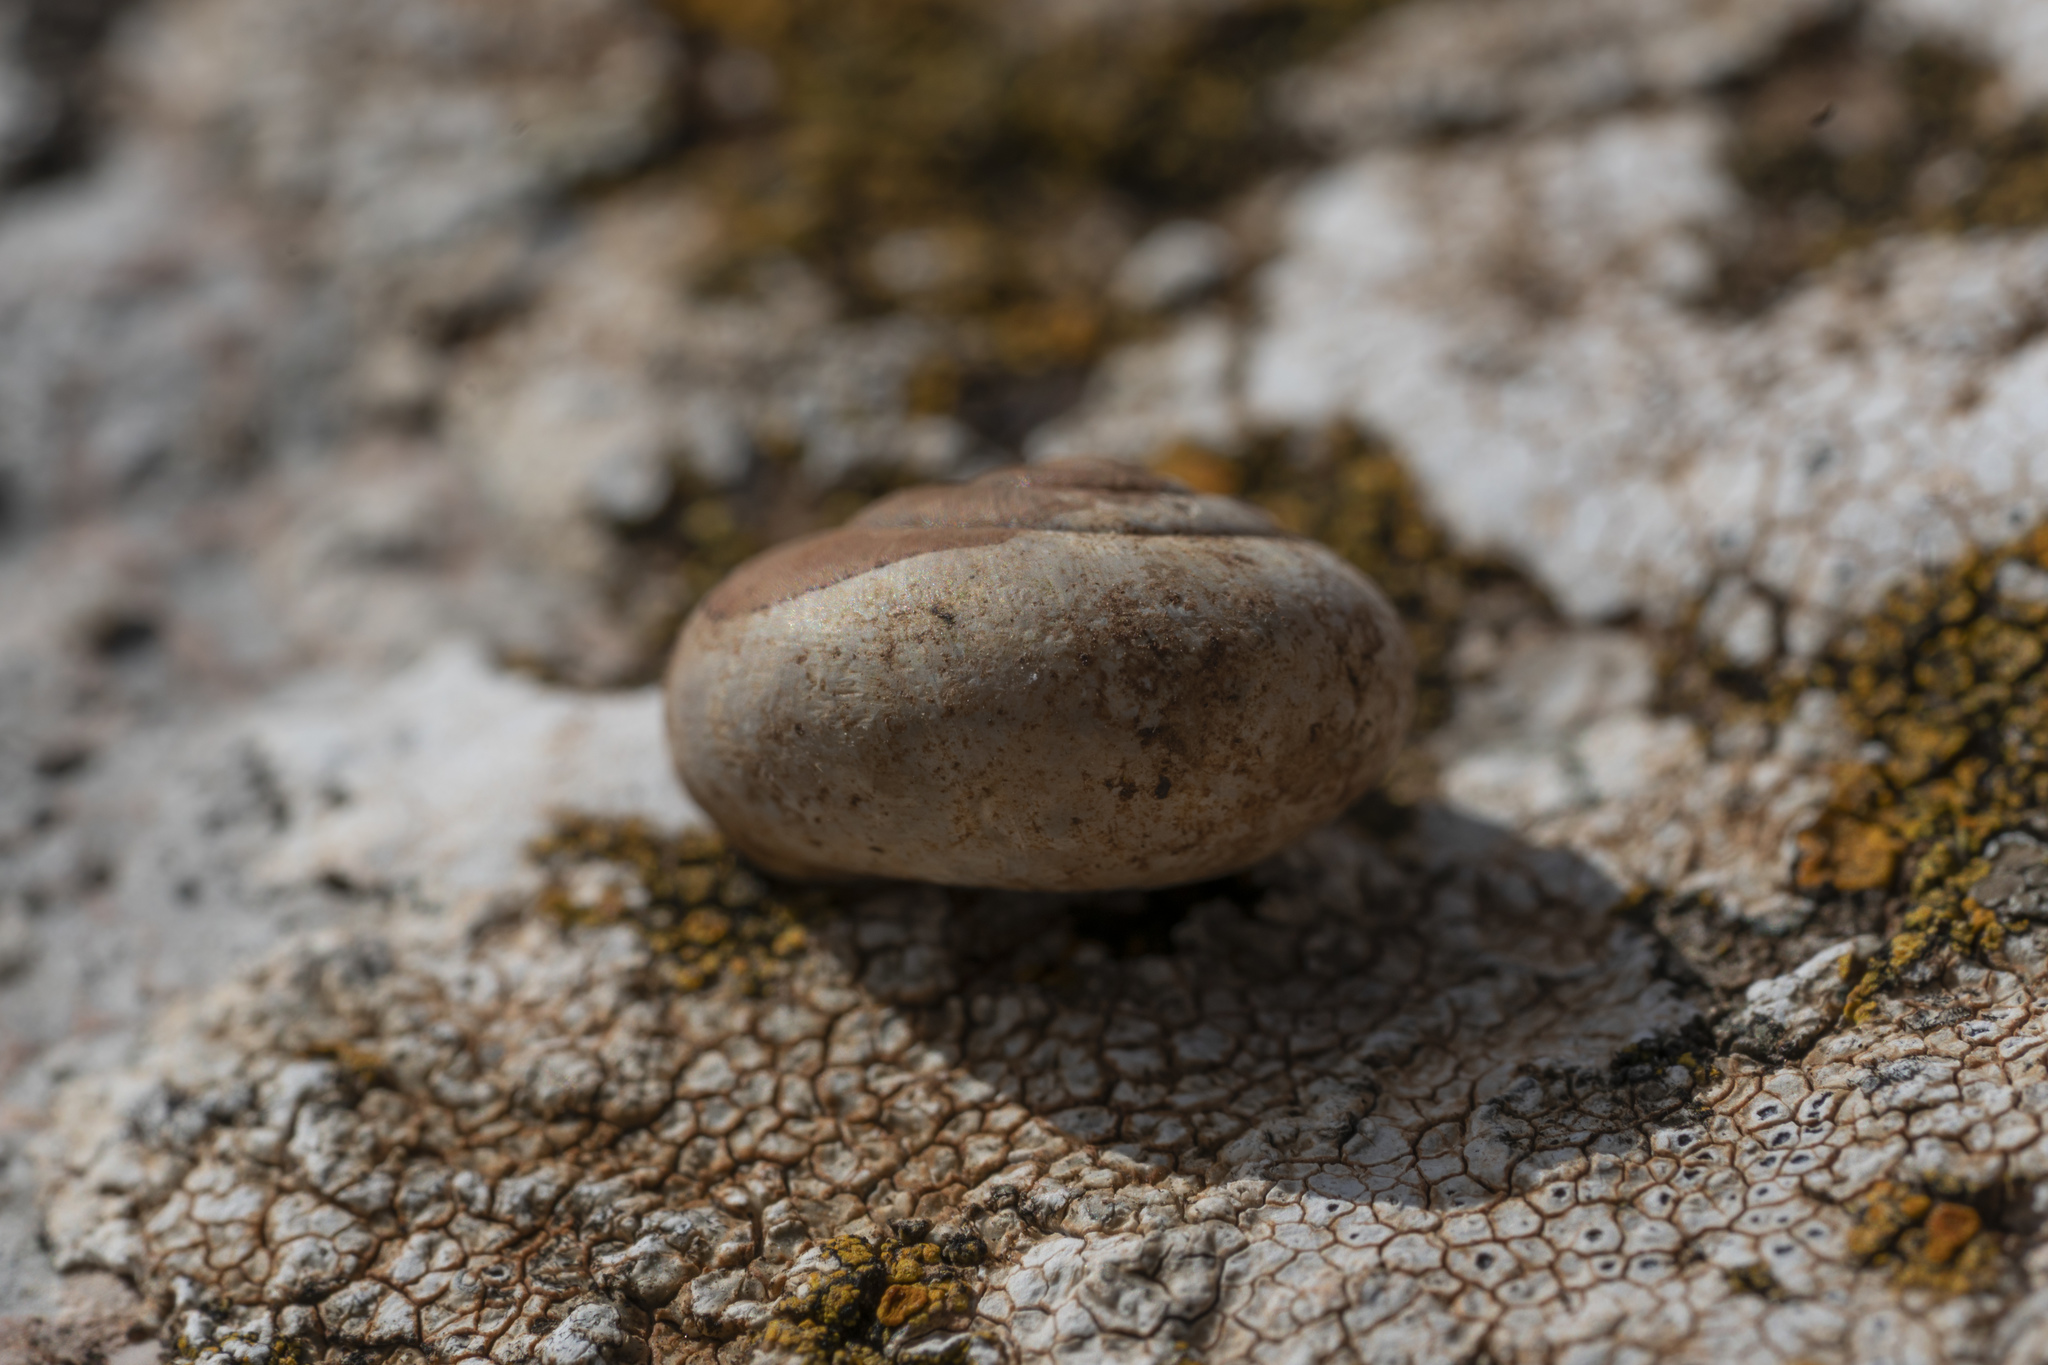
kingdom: Animalia
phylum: Mollusca
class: Gastropoda
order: Stylommatophora
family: Hygromiidae
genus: Monacha
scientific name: Monacha syriaca
